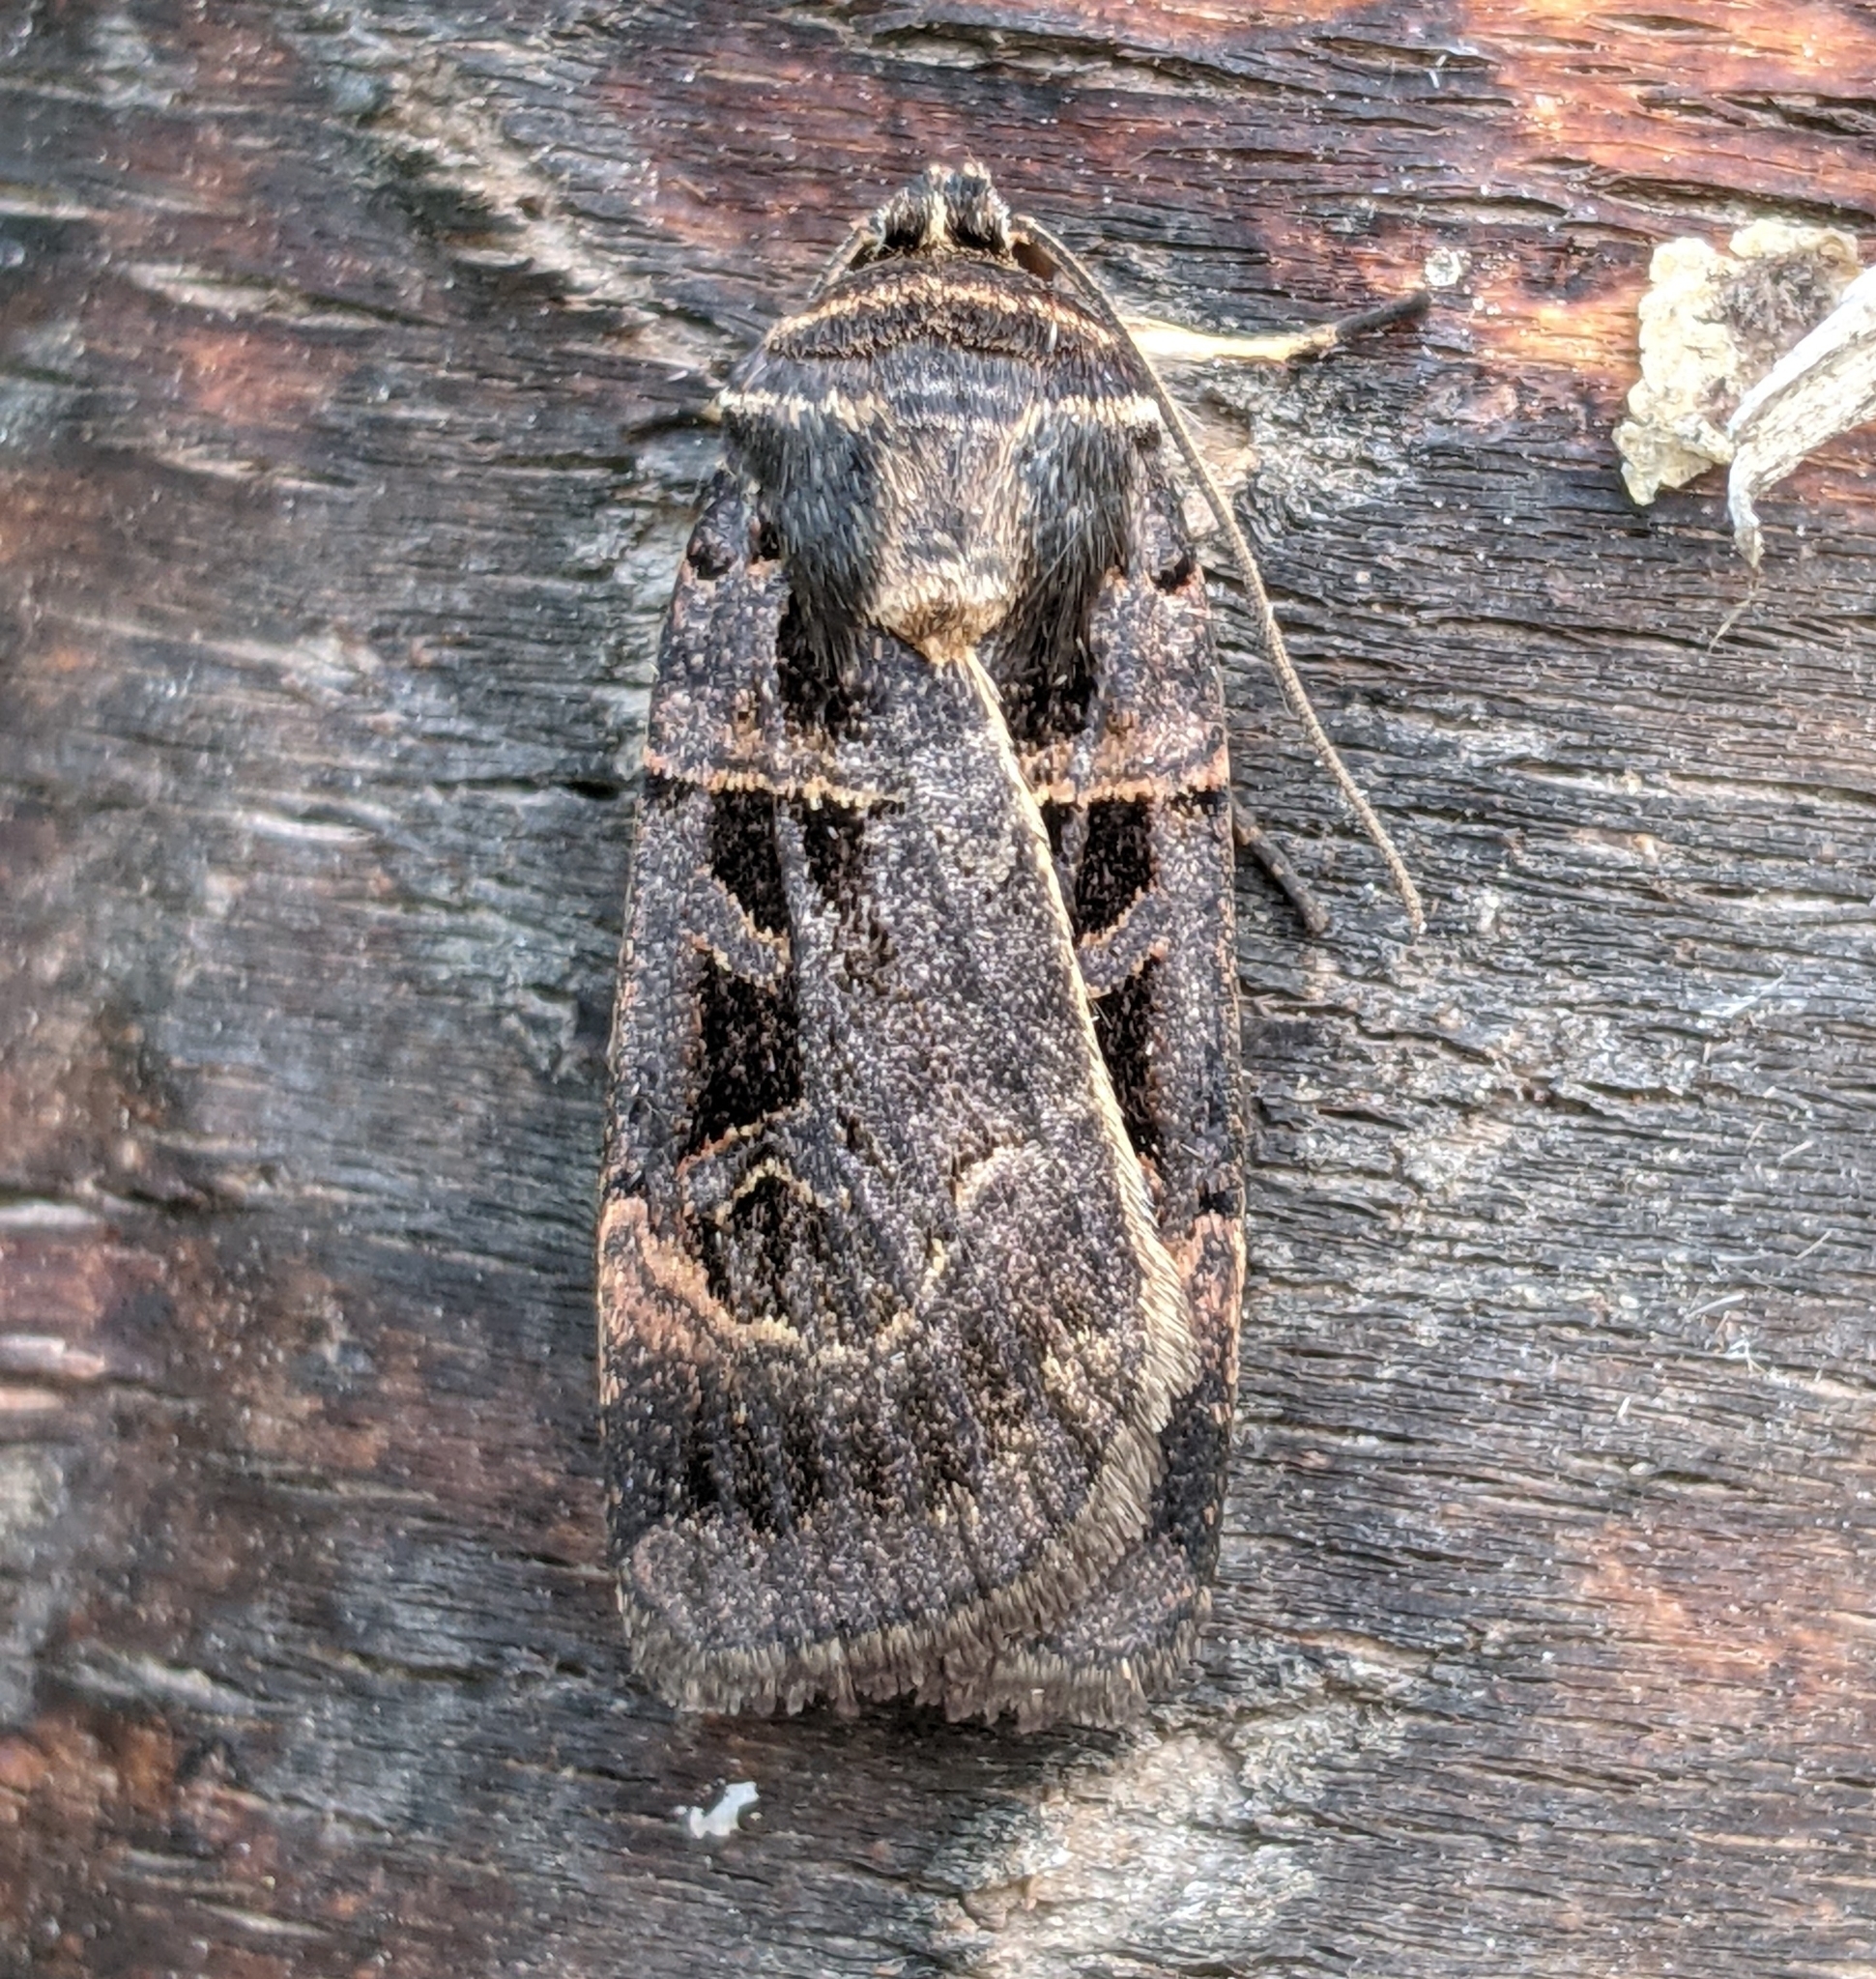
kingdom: Animalia
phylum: Arthropoda
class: Insecta
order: Lepidoptera
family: Noctuidae
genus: Pseudohermonassa
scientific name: Pseudohermonassa tenuicula
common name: Morrison's sooty dart
